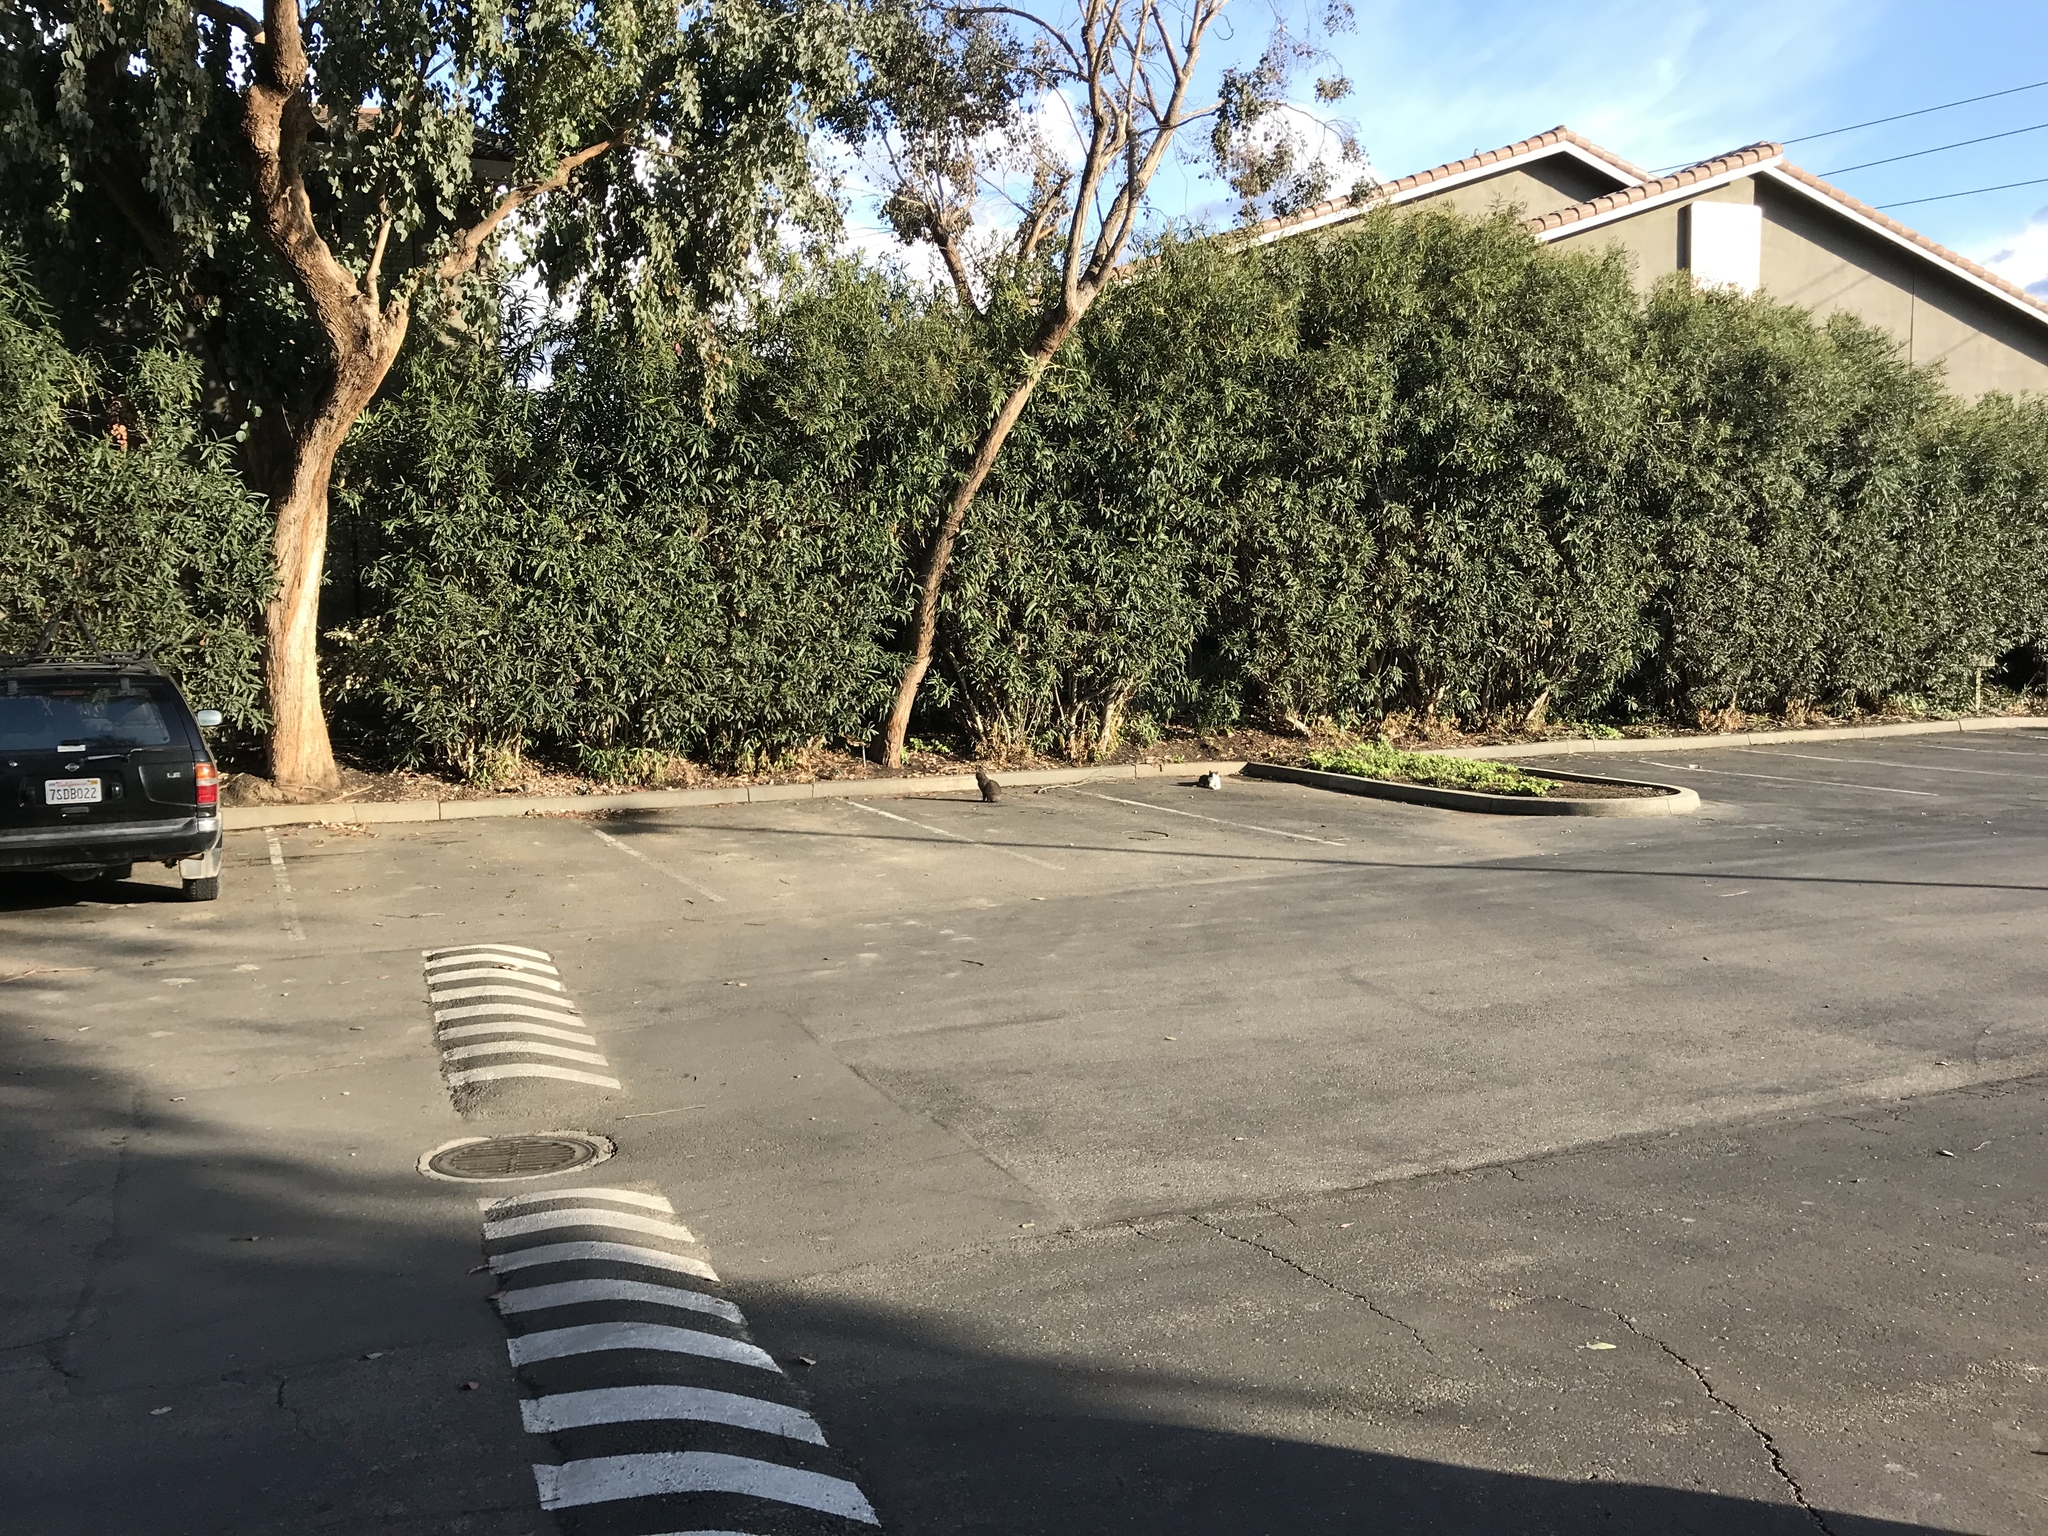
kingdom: Animalia
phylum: Chordata
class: Mammalia
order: Carnivora
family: Felidae
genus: Felis
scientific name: Felis catus
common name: Domestic cat
